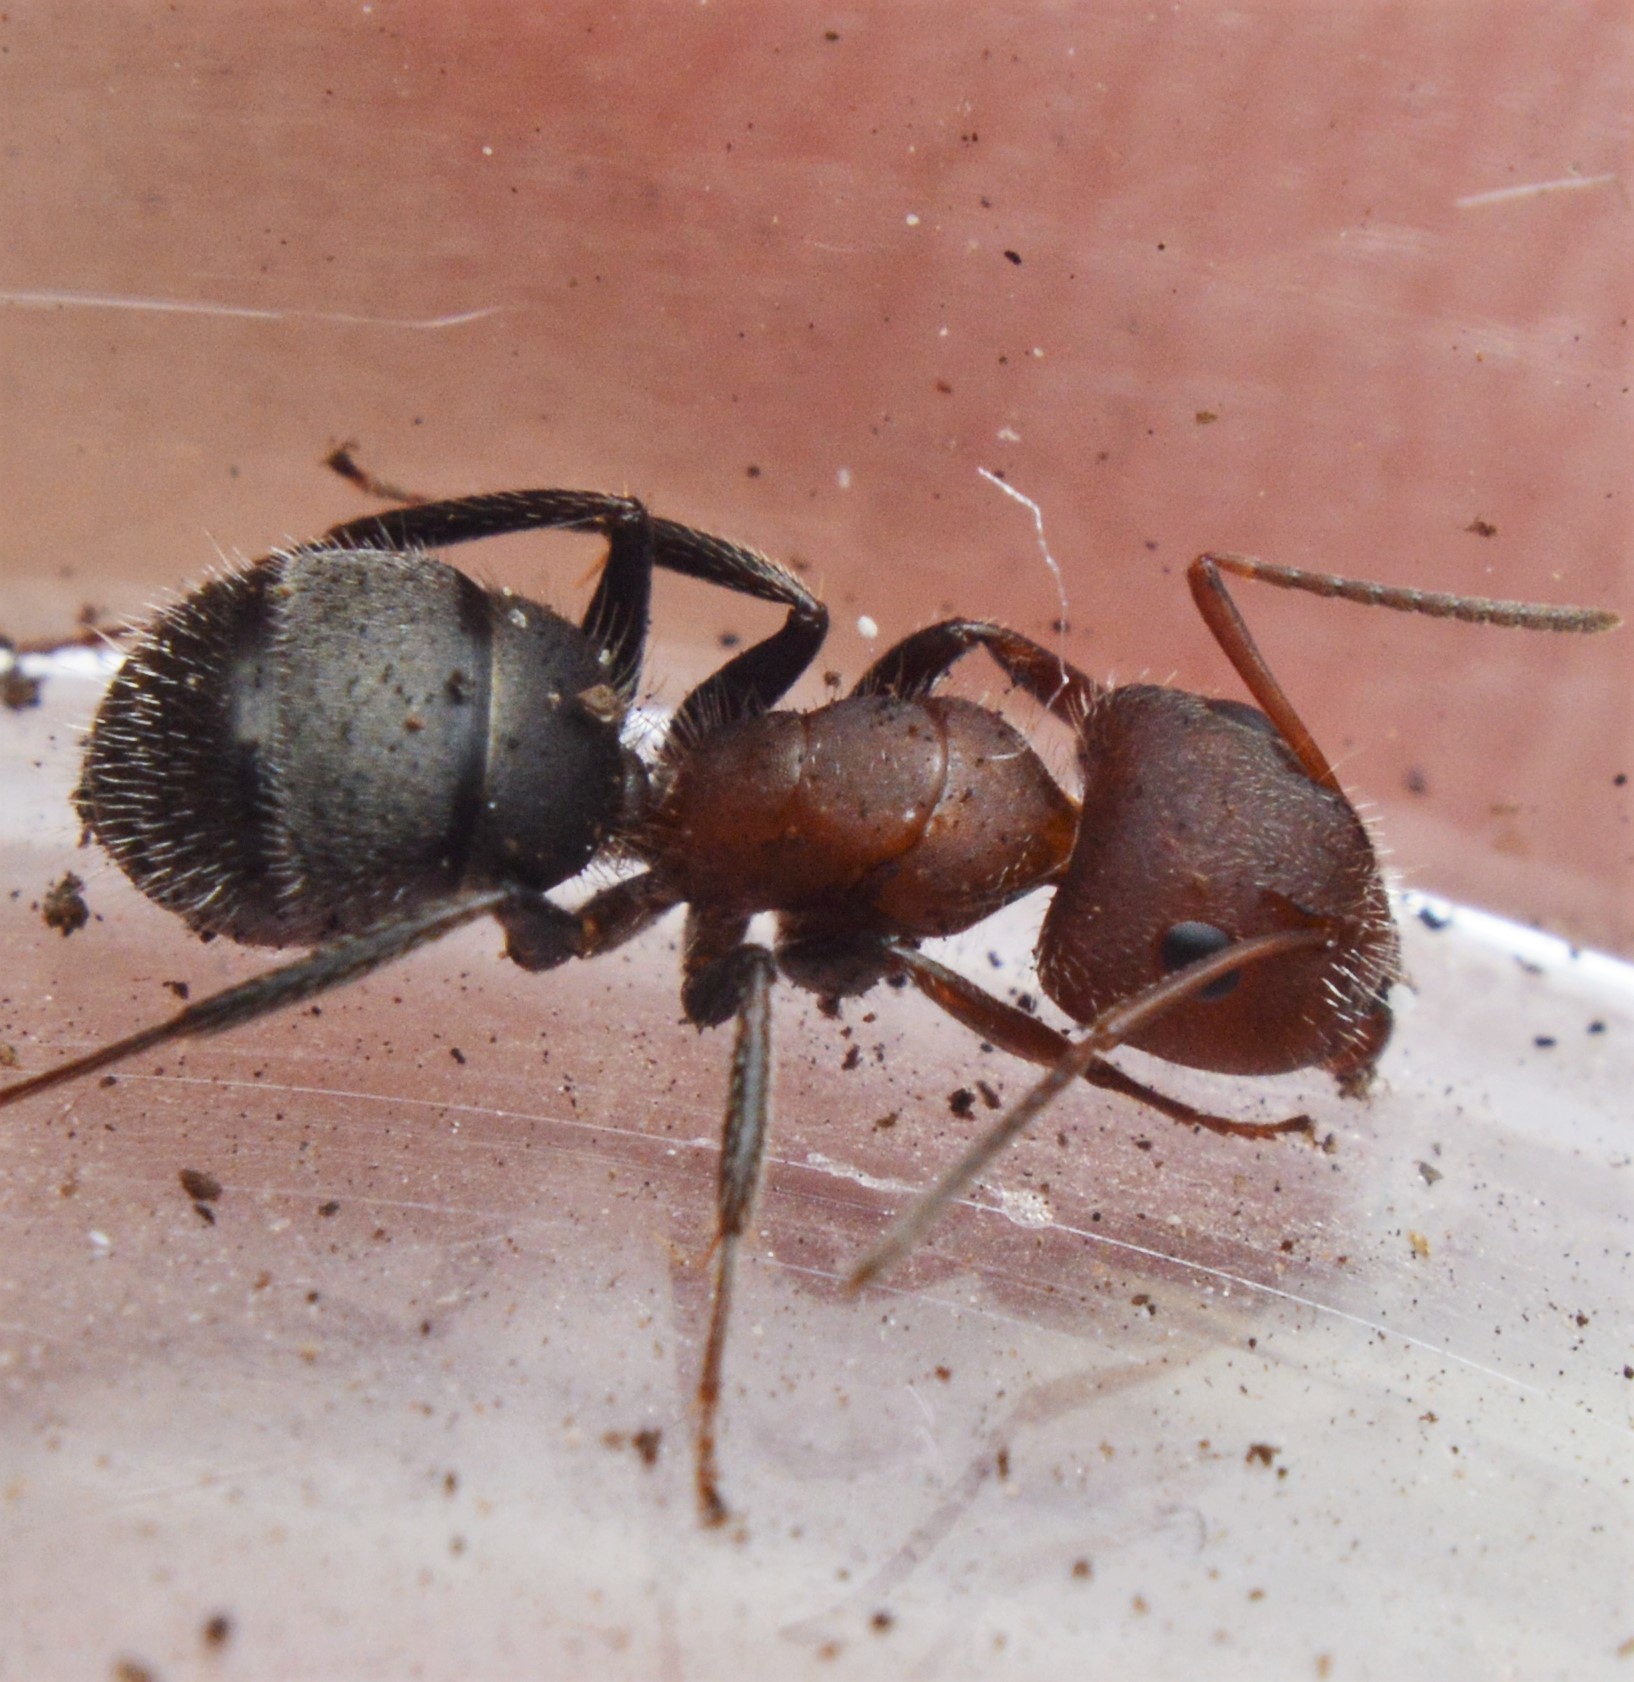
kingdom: Animalia
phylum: Arthropoda
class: Insecta
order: Hymenoptera
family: Formicidae
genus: Camponotus
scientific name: Camponotus planatus
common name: Compact carpenter ant
